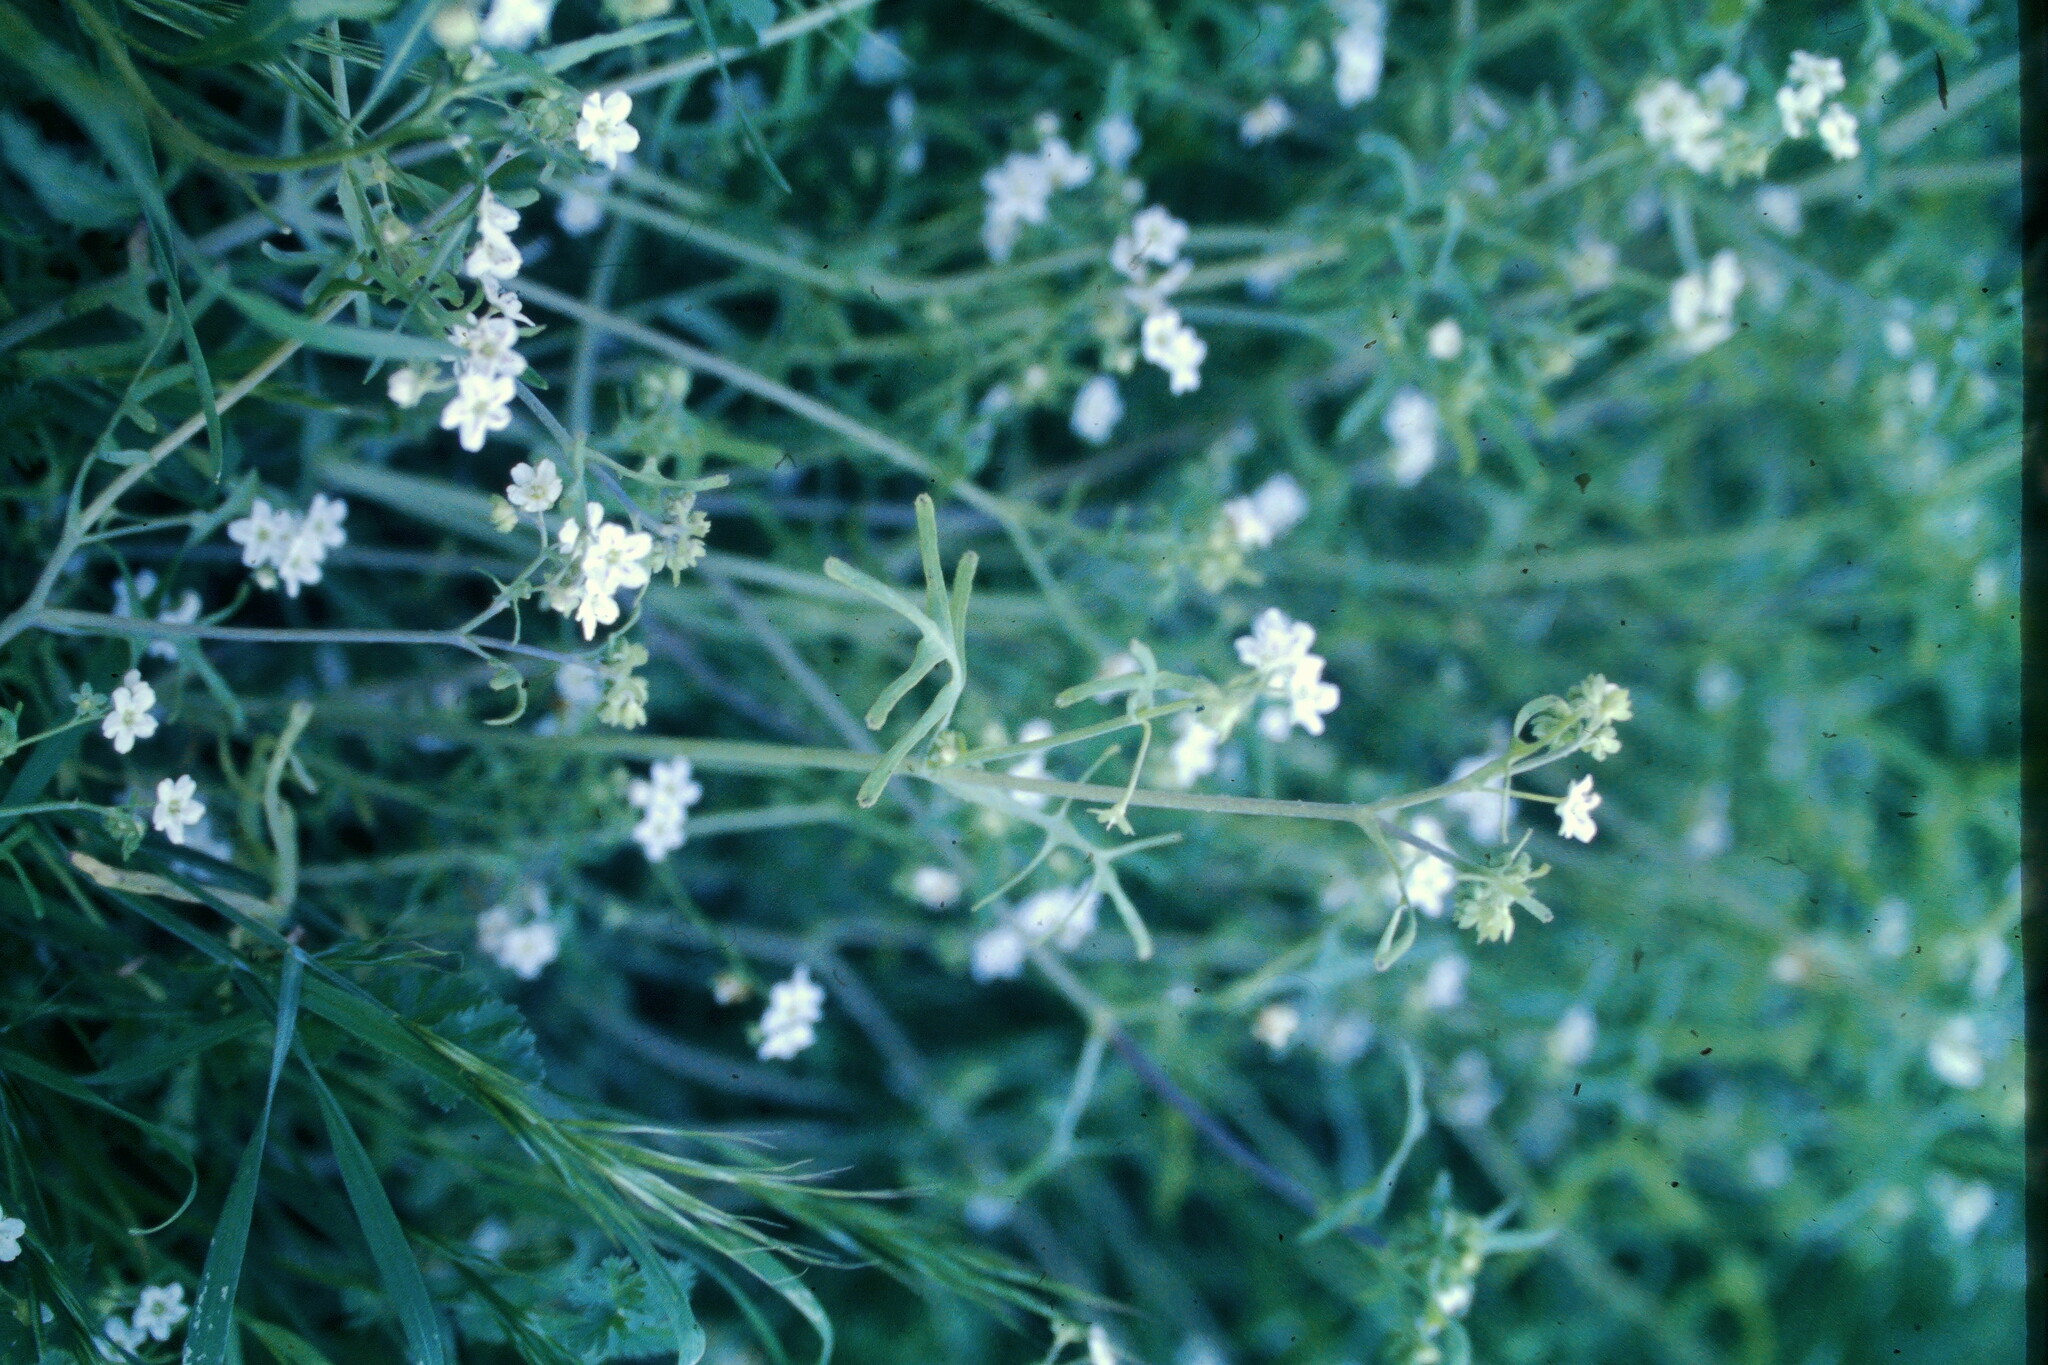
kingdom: Plantae
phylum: Tracheophyta
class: Magnoliopsida
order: Boraginales
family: Hydrophyllaceae
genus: Pholistoma
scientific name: Pholistoma membranaceum
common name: White fiesta-flower
